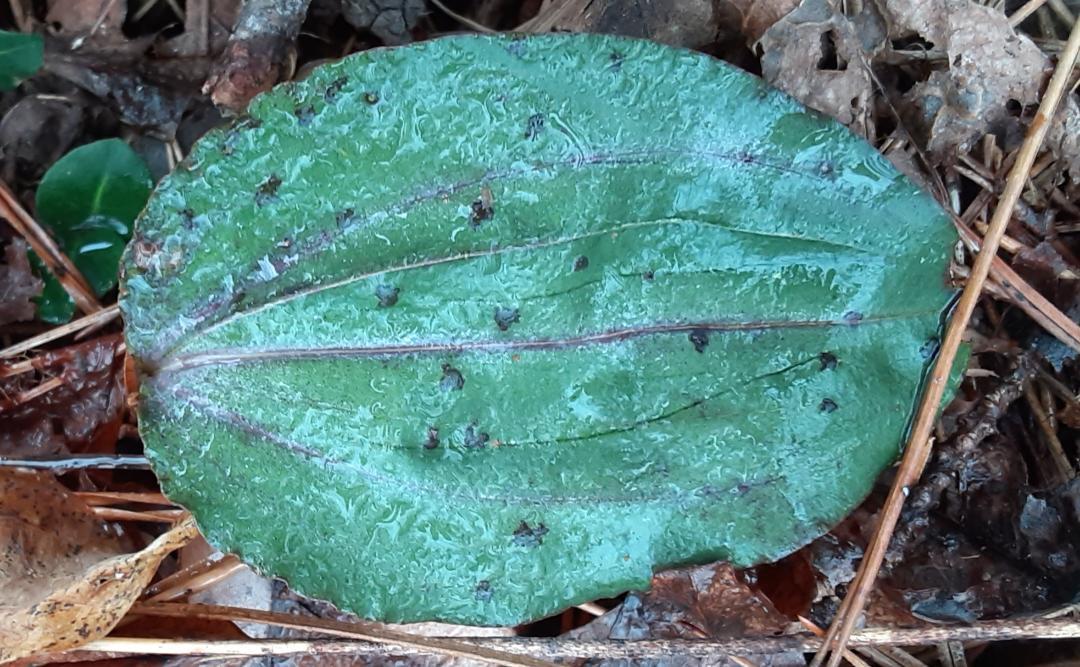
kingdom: Plantae
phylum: Tracheophyta
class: Liliopsida
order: Asparagales
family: Orchidaceae
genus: Tipularia
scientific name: Tipularia discolor
